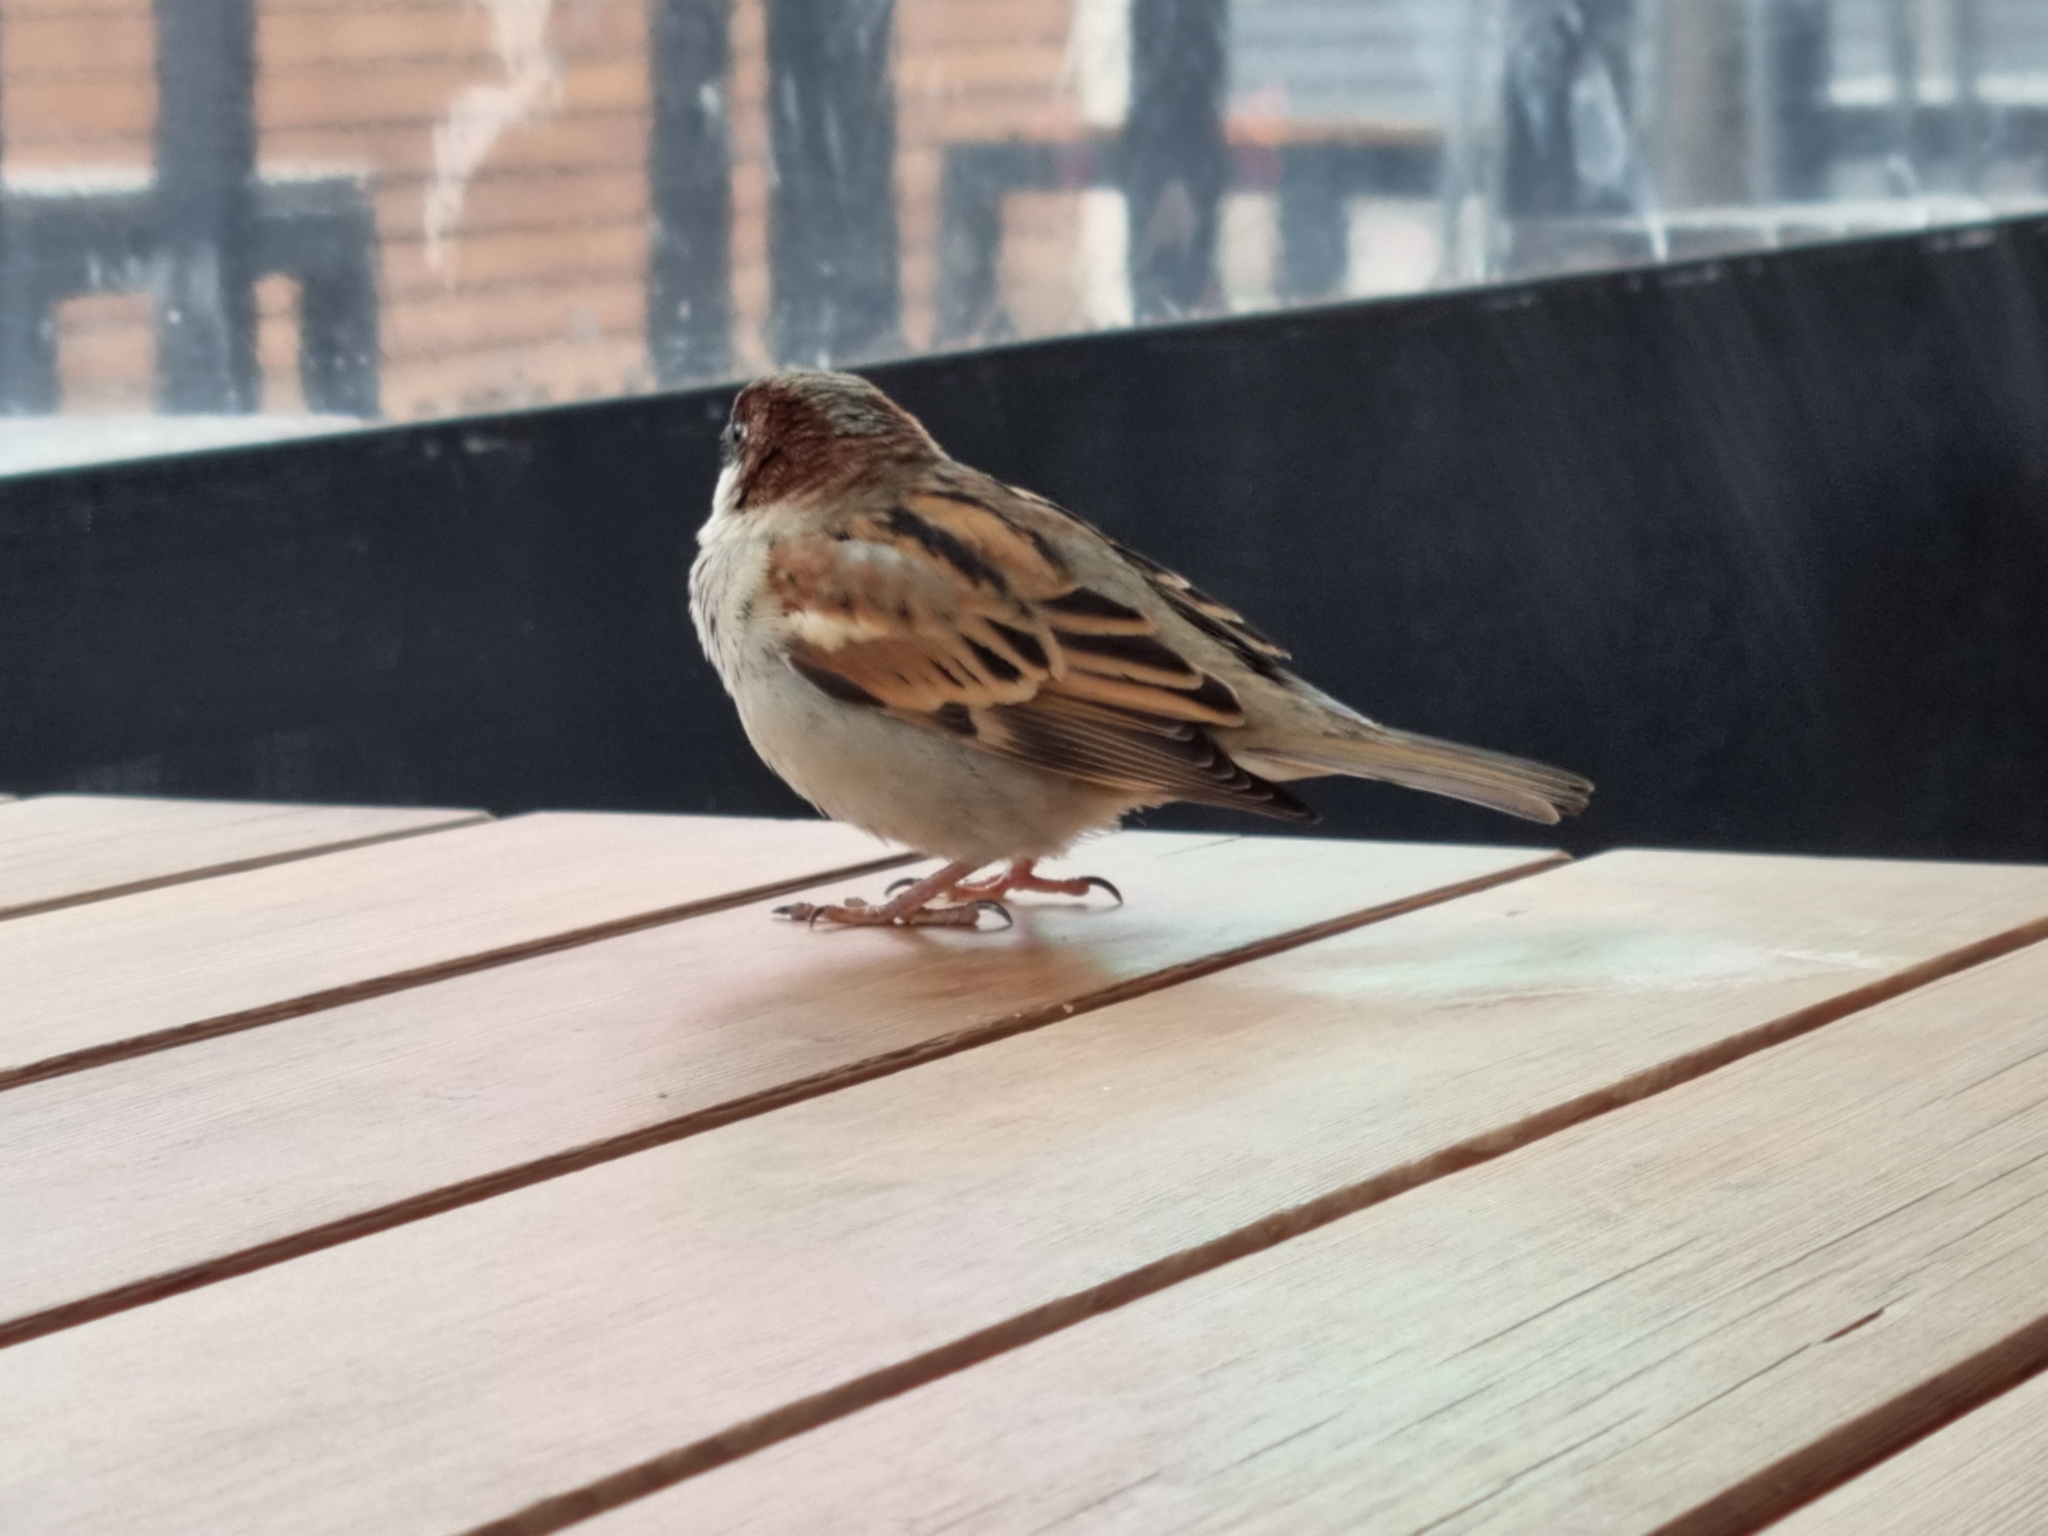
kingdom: Animalia
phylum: Chordata
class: Aves
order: Passeriformes
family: Passeridae
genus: Passer
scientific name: Passer domesticus
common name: House sparrow
